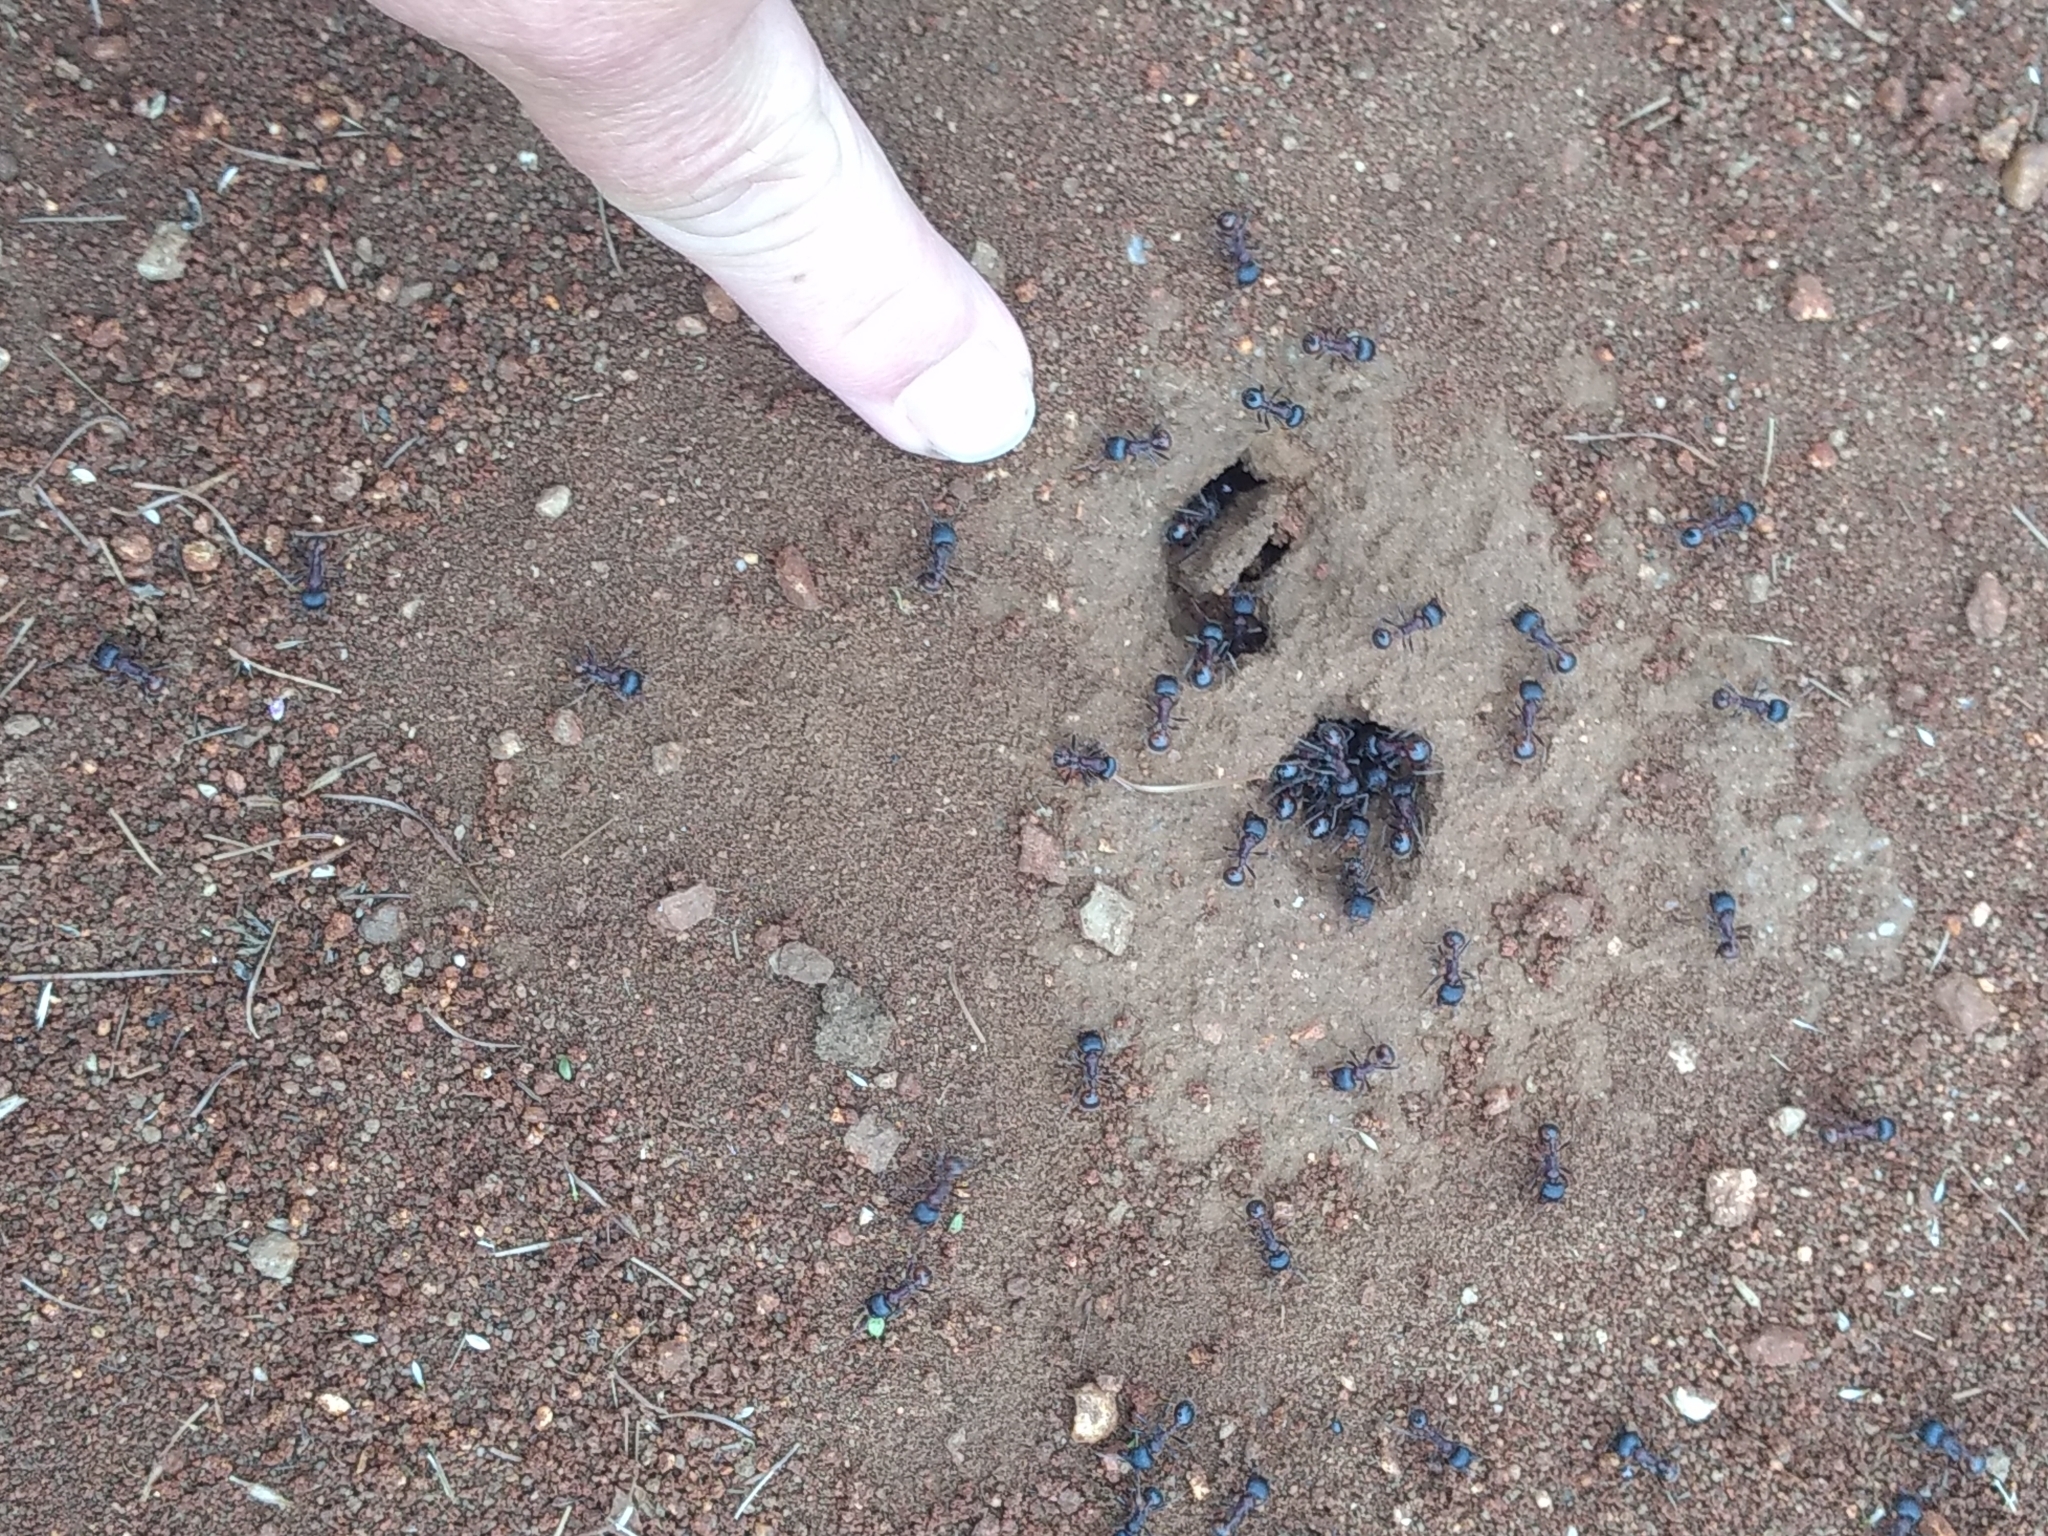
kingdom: Animalia
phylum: Arthropoda
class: Insecta
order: Hymenoptera
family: Formicidae
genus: Pogonomyrmex
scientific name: Pogonomyrmex rugosus
